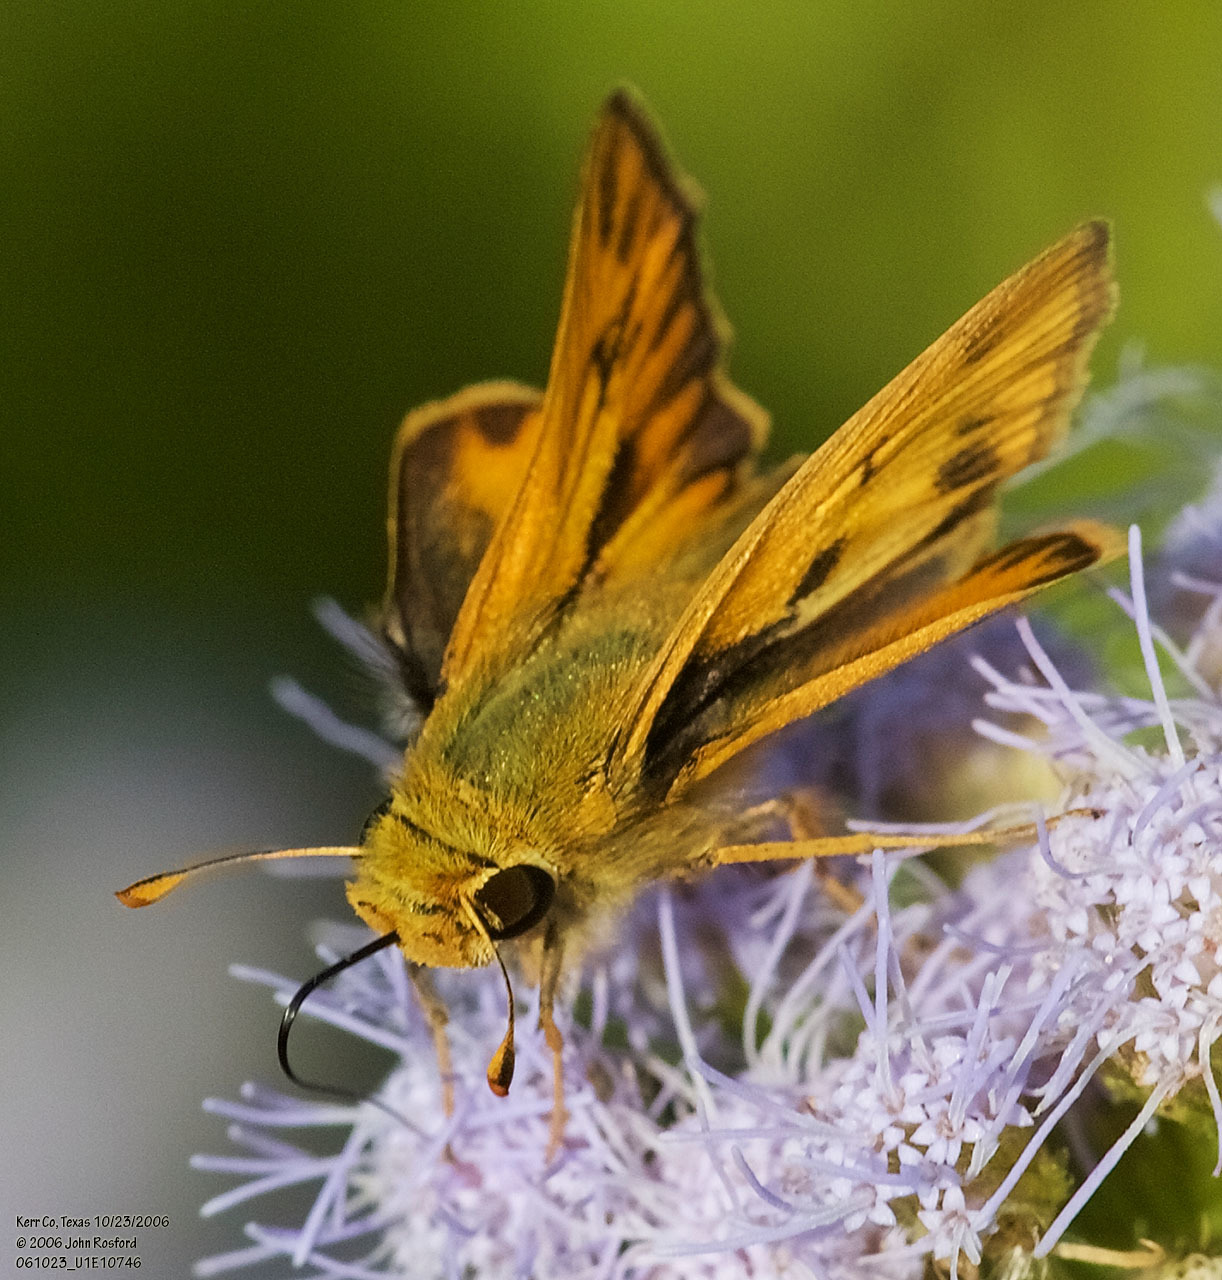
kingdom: Animalia
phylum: Arthropoda
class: Insecta
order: Lepidoptera
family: Hesperiidae
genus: Hylephila
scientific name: Hylephila phyleus
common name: Fiery skipper
